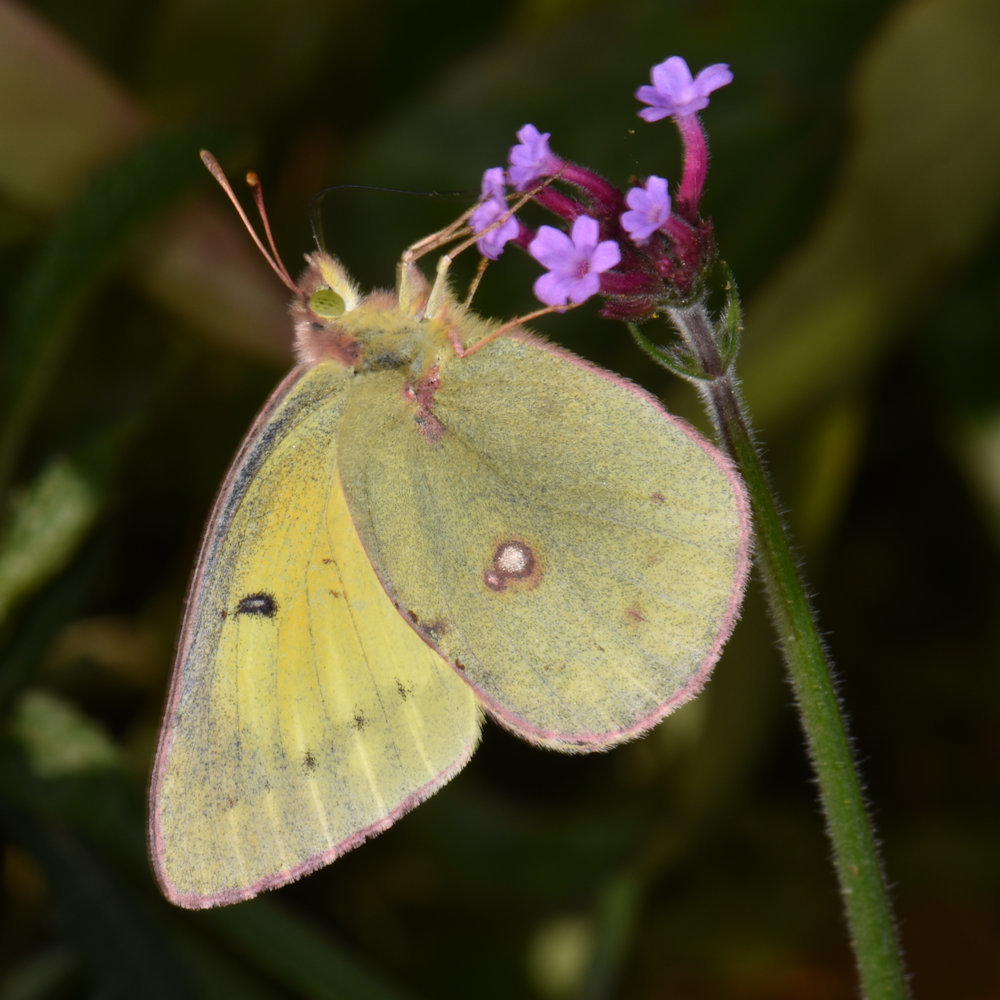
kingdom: Animalia
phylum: Arthropoda
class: Insecta
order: Lepidoptera
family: Pieridae
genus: Colias
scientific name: Colias philodice
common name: Clouded sulphur
